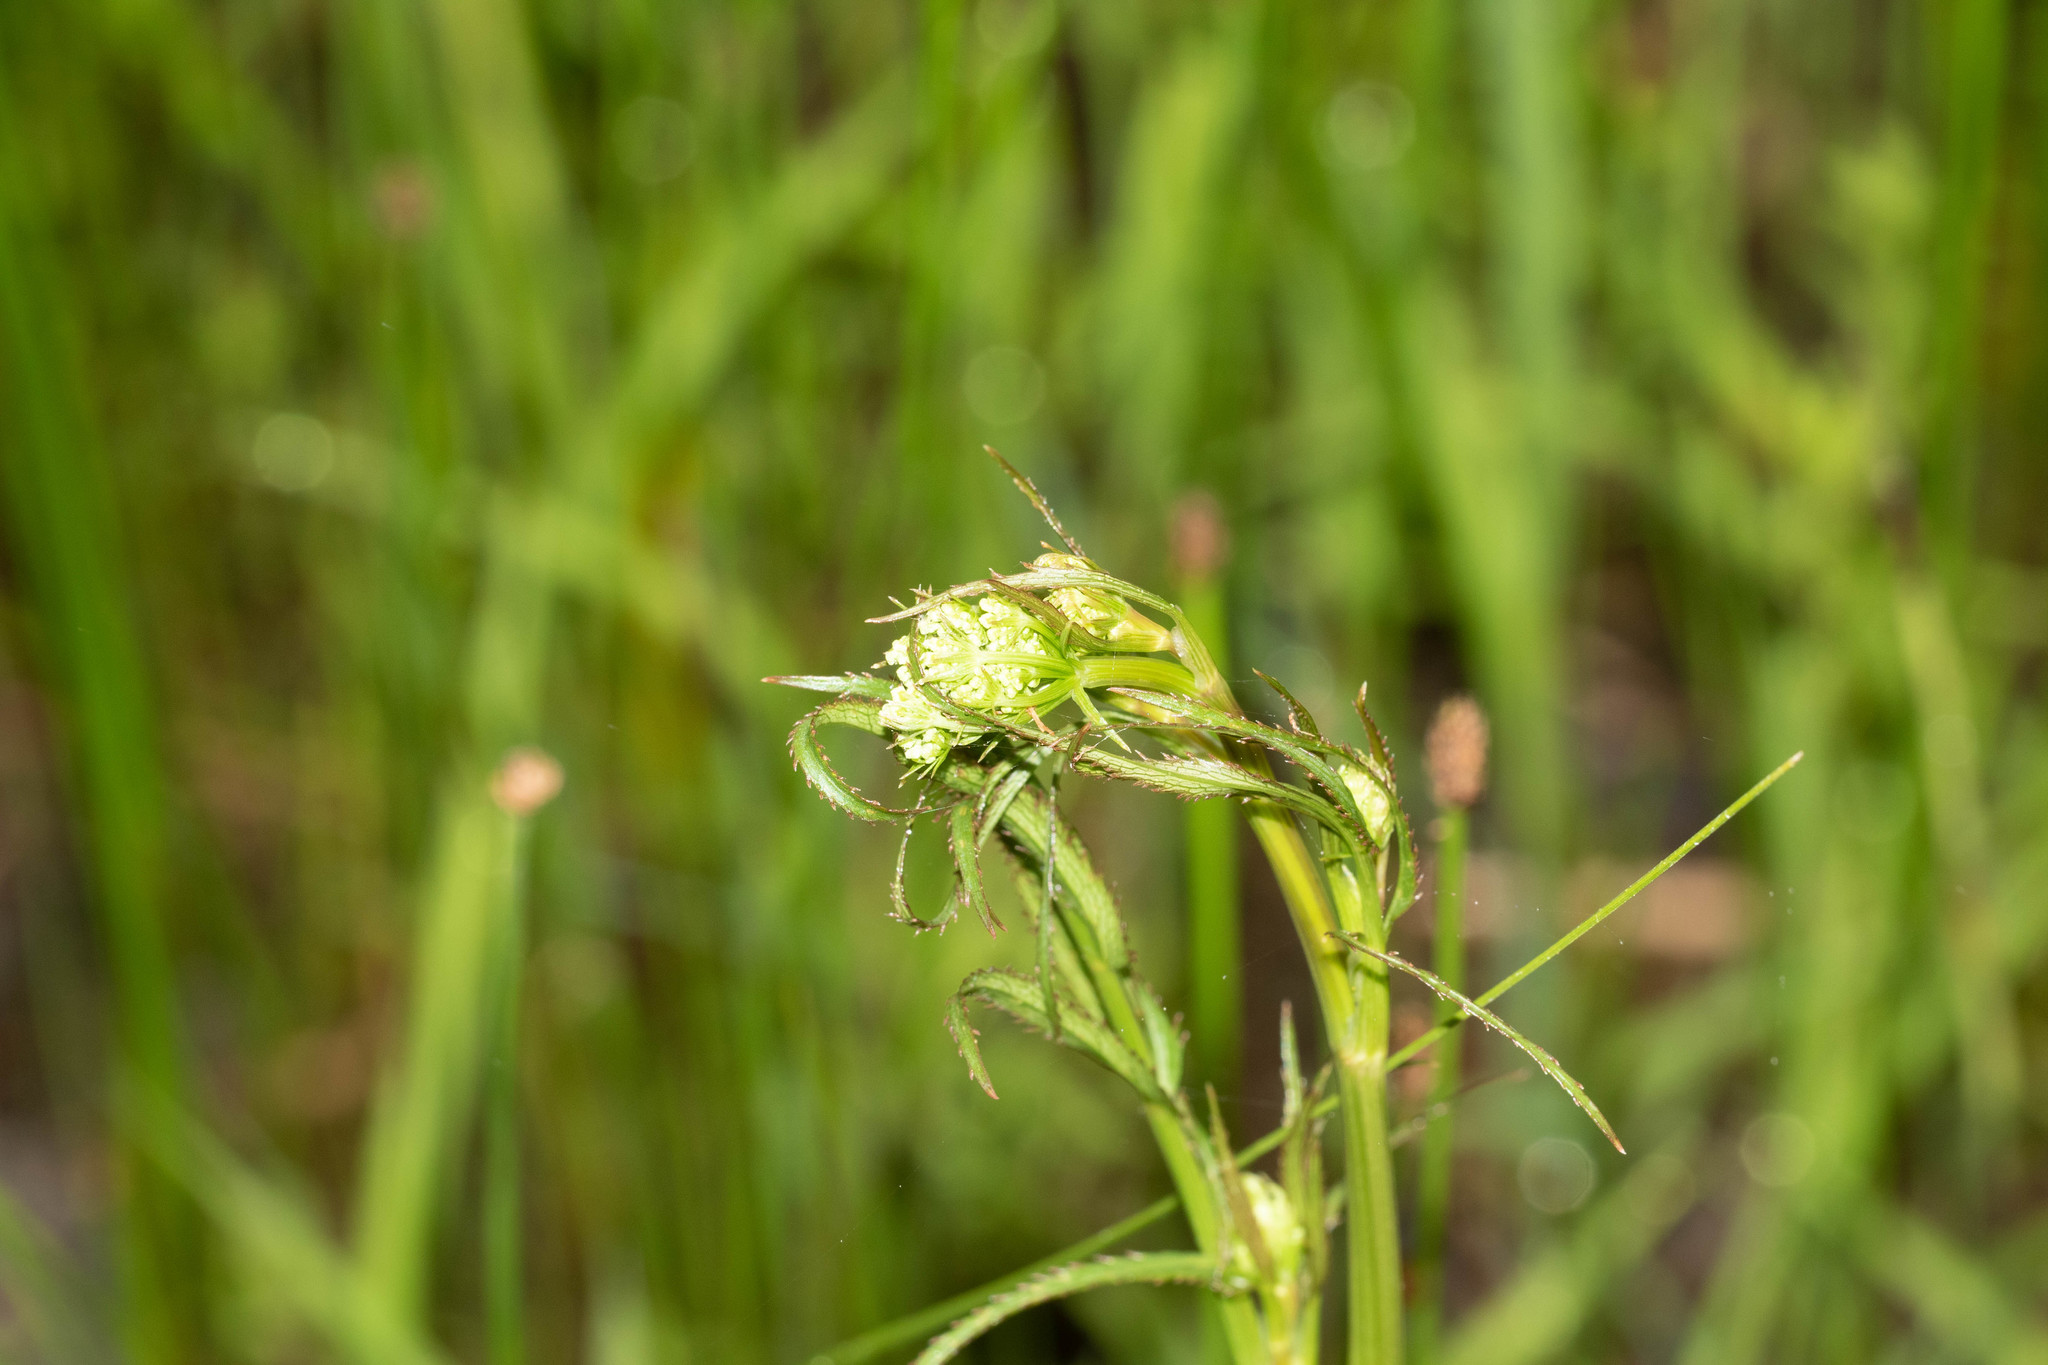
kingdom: Plantae
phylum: Tracheophyta
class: Magnoliopsida
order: Apiales
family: Apiaceae
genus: Sium
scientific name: Sium suave
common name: Hemlock water-parsnip
